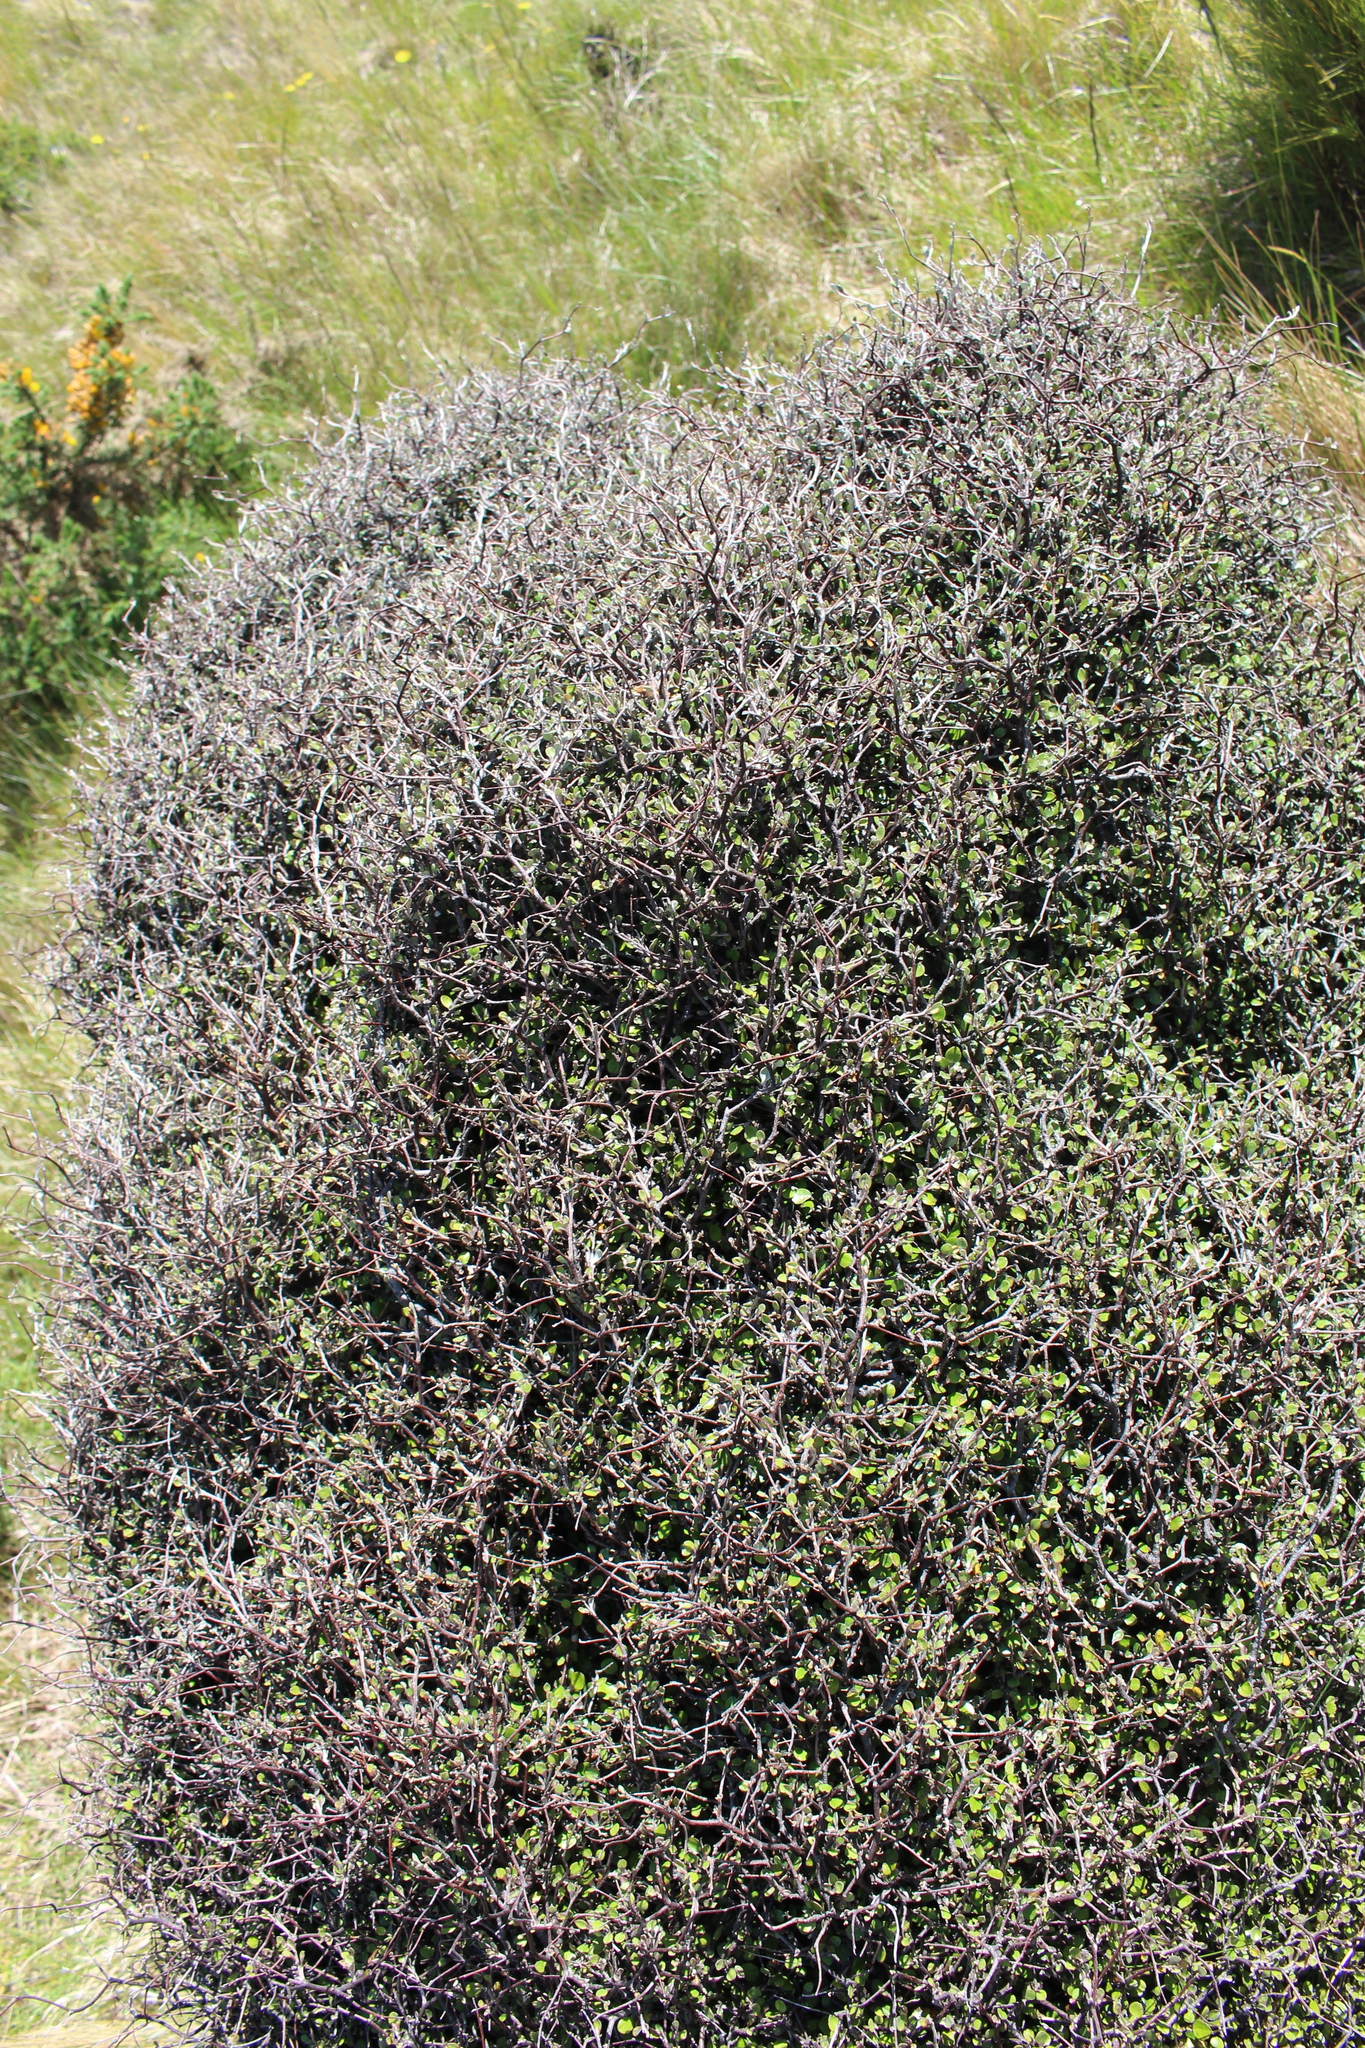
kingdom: Plantae
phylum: Tracheophyta
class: Magnoliopsida
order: Asterales
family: Argophyllaceae
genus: Corokia
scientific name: Corokia cotoneaster
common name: Wire nettingbush
